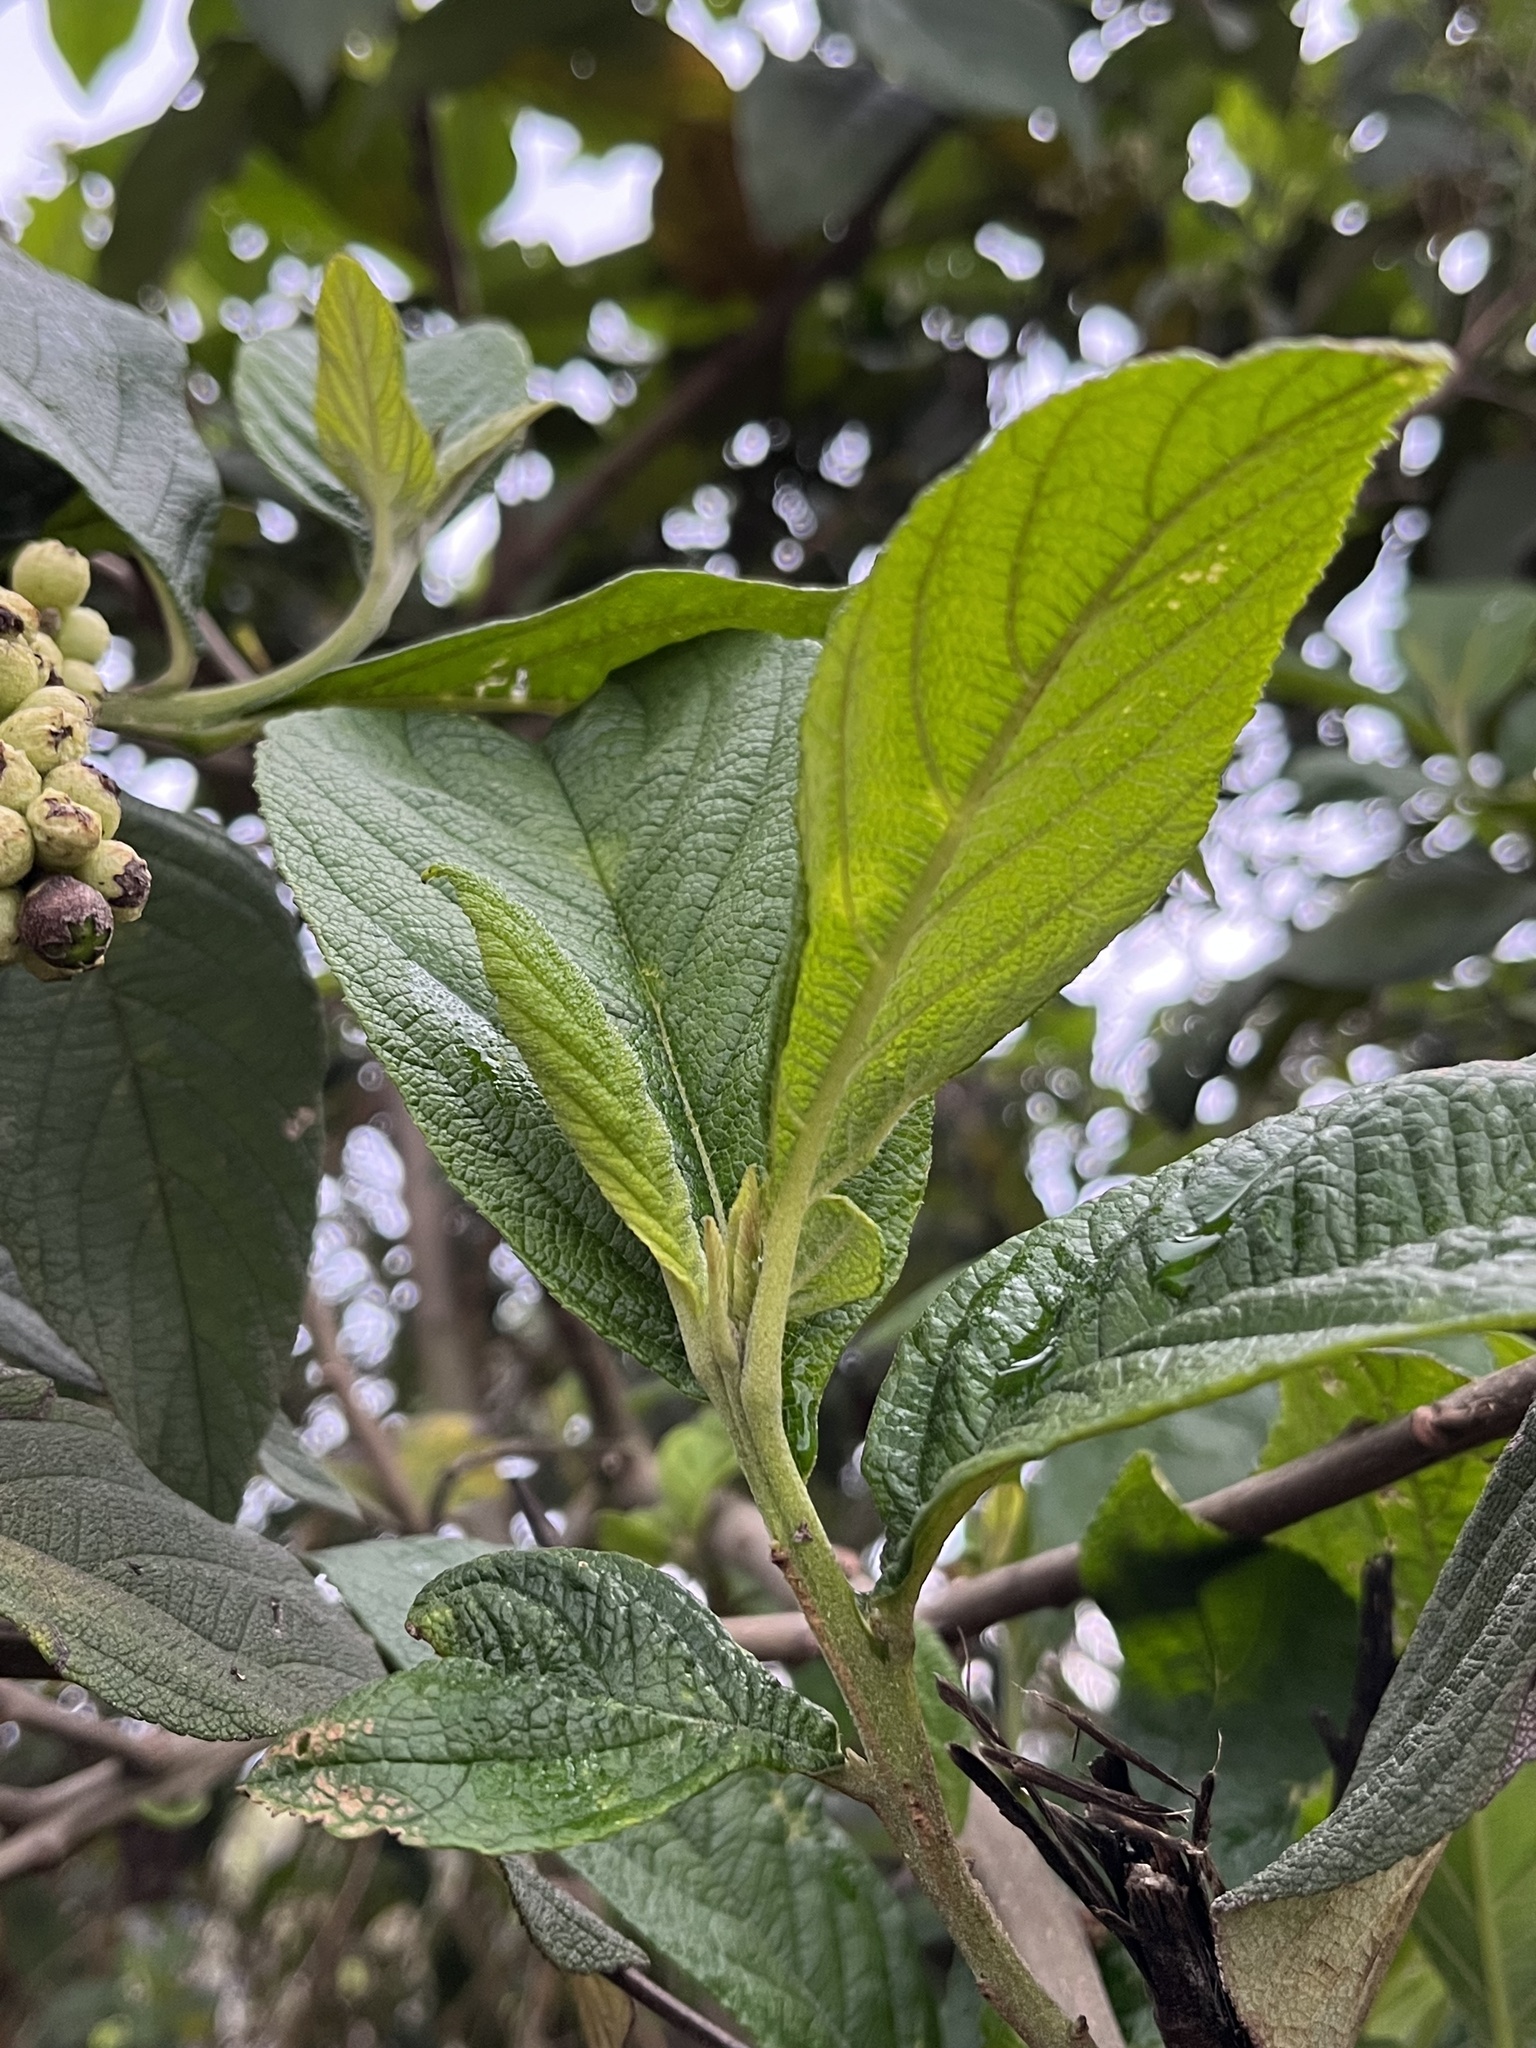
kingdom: Plantae
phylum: Tracheophyta
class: Magnoliopsida
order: Boraginales
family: Cordiaceae
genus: Varronia
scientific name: Varronia cylindrostachya
